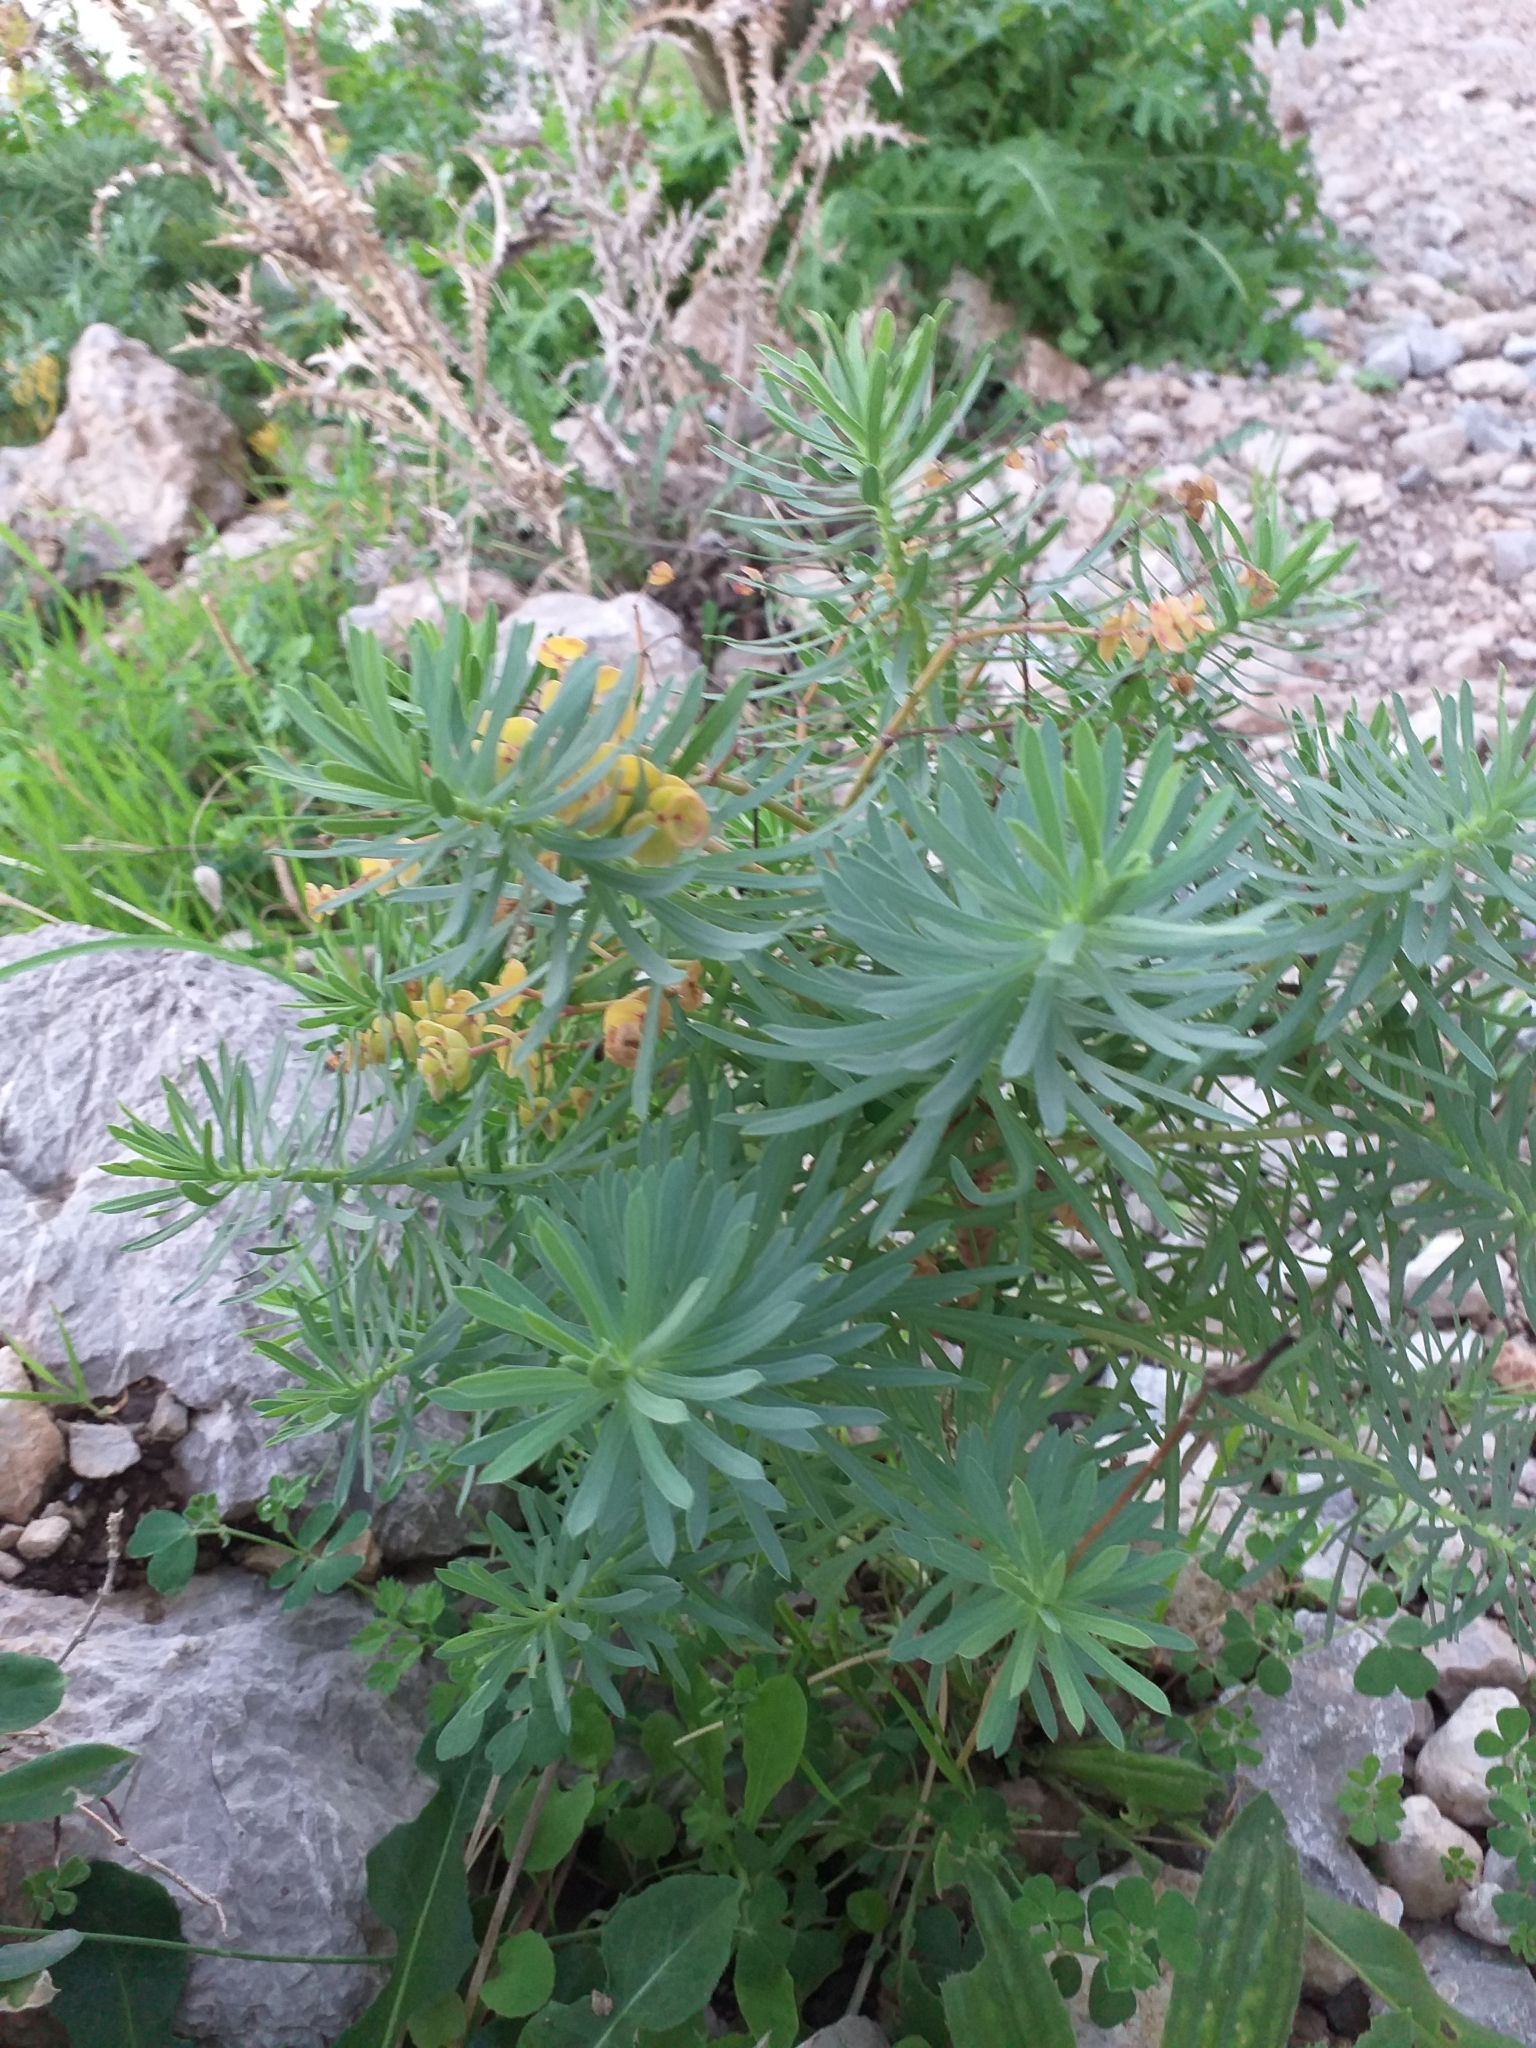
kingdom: Plantae
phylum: Tracheophyta
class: Magnoliopsida
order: Malpighiales
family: Euphorbiaceae
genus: Euphorbia
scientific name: Euphorbia segetalis
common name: Corn spurge
